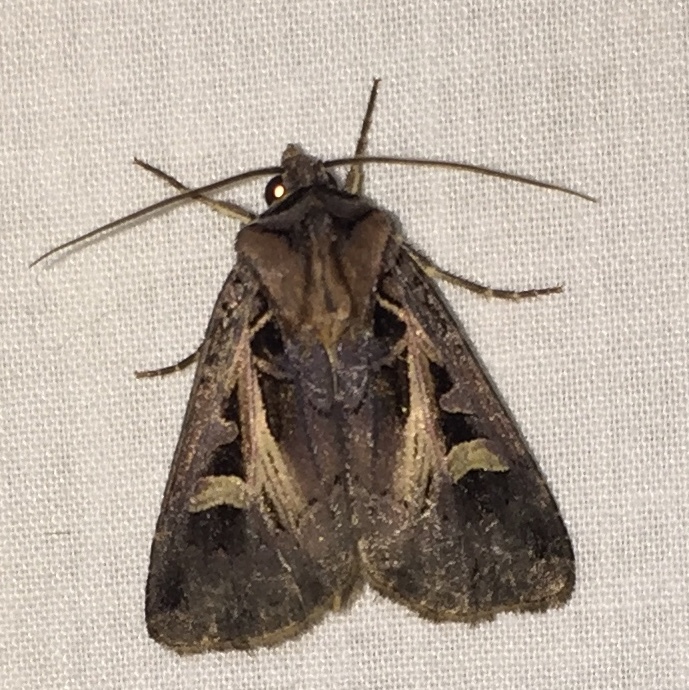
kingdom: Animalia
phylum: Arthropoda
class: Insecta
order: Lepidoptera
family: Noctuidae
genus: Feltia
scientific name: Feltia herilis
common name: Master's dart
